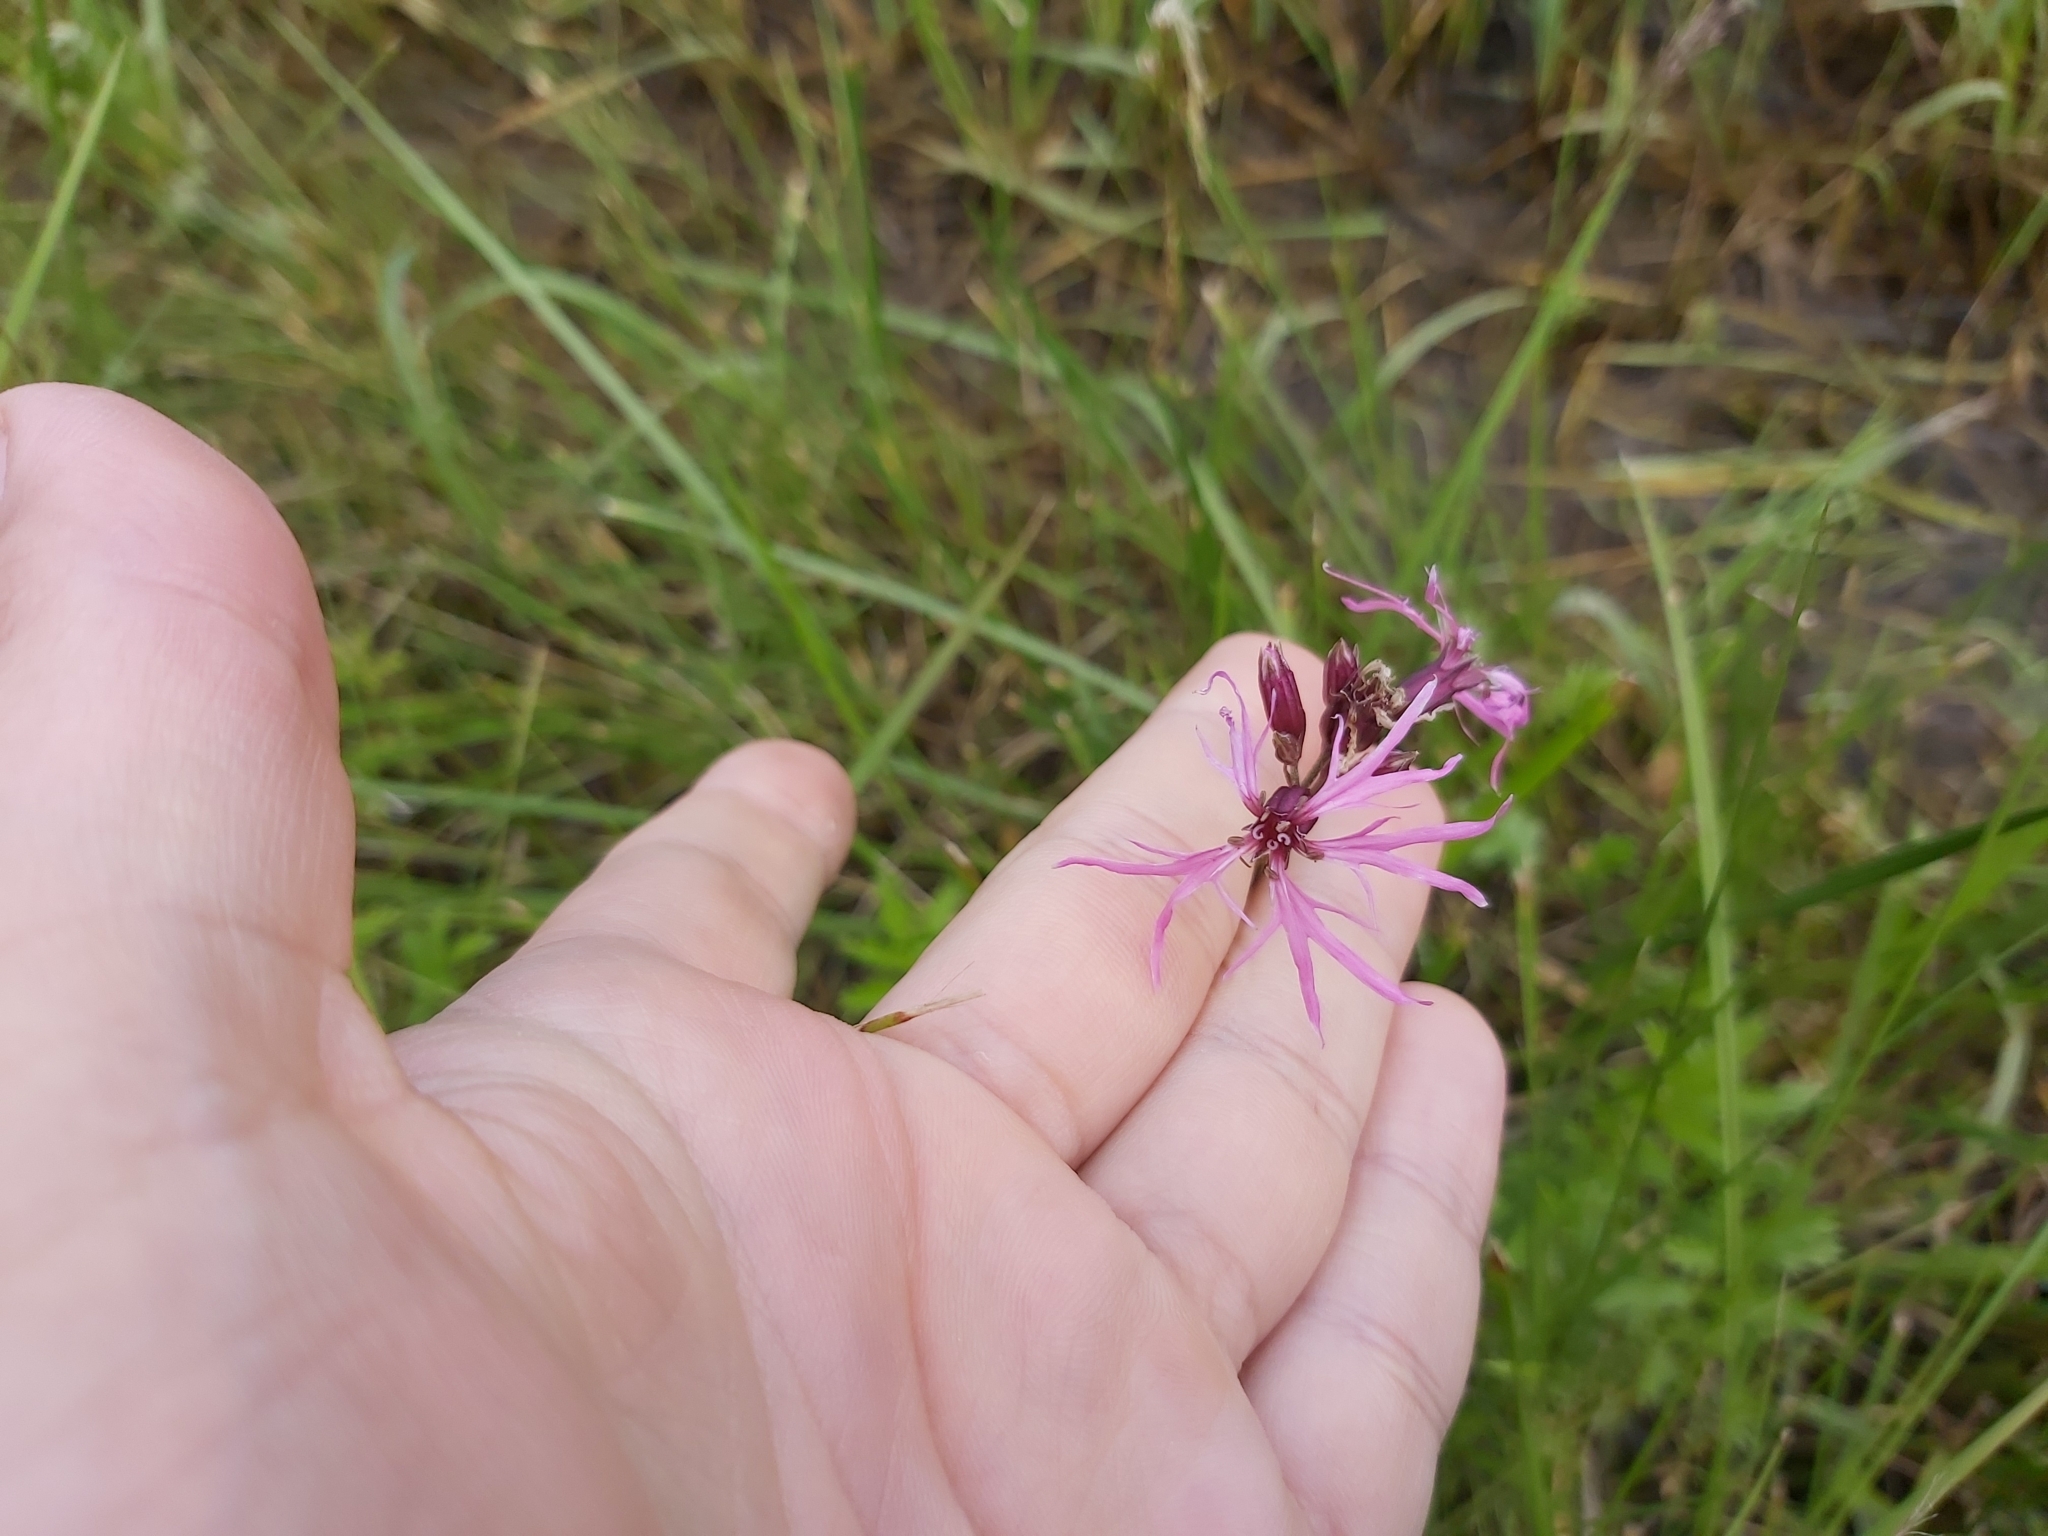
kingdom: Plantae
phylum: Tracheophyta
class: Magnoliopsida
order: Caryophyllales
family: Caryophyllaceae
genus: Silene
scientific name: Silene flos-cuculi
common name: Ragged-robin
